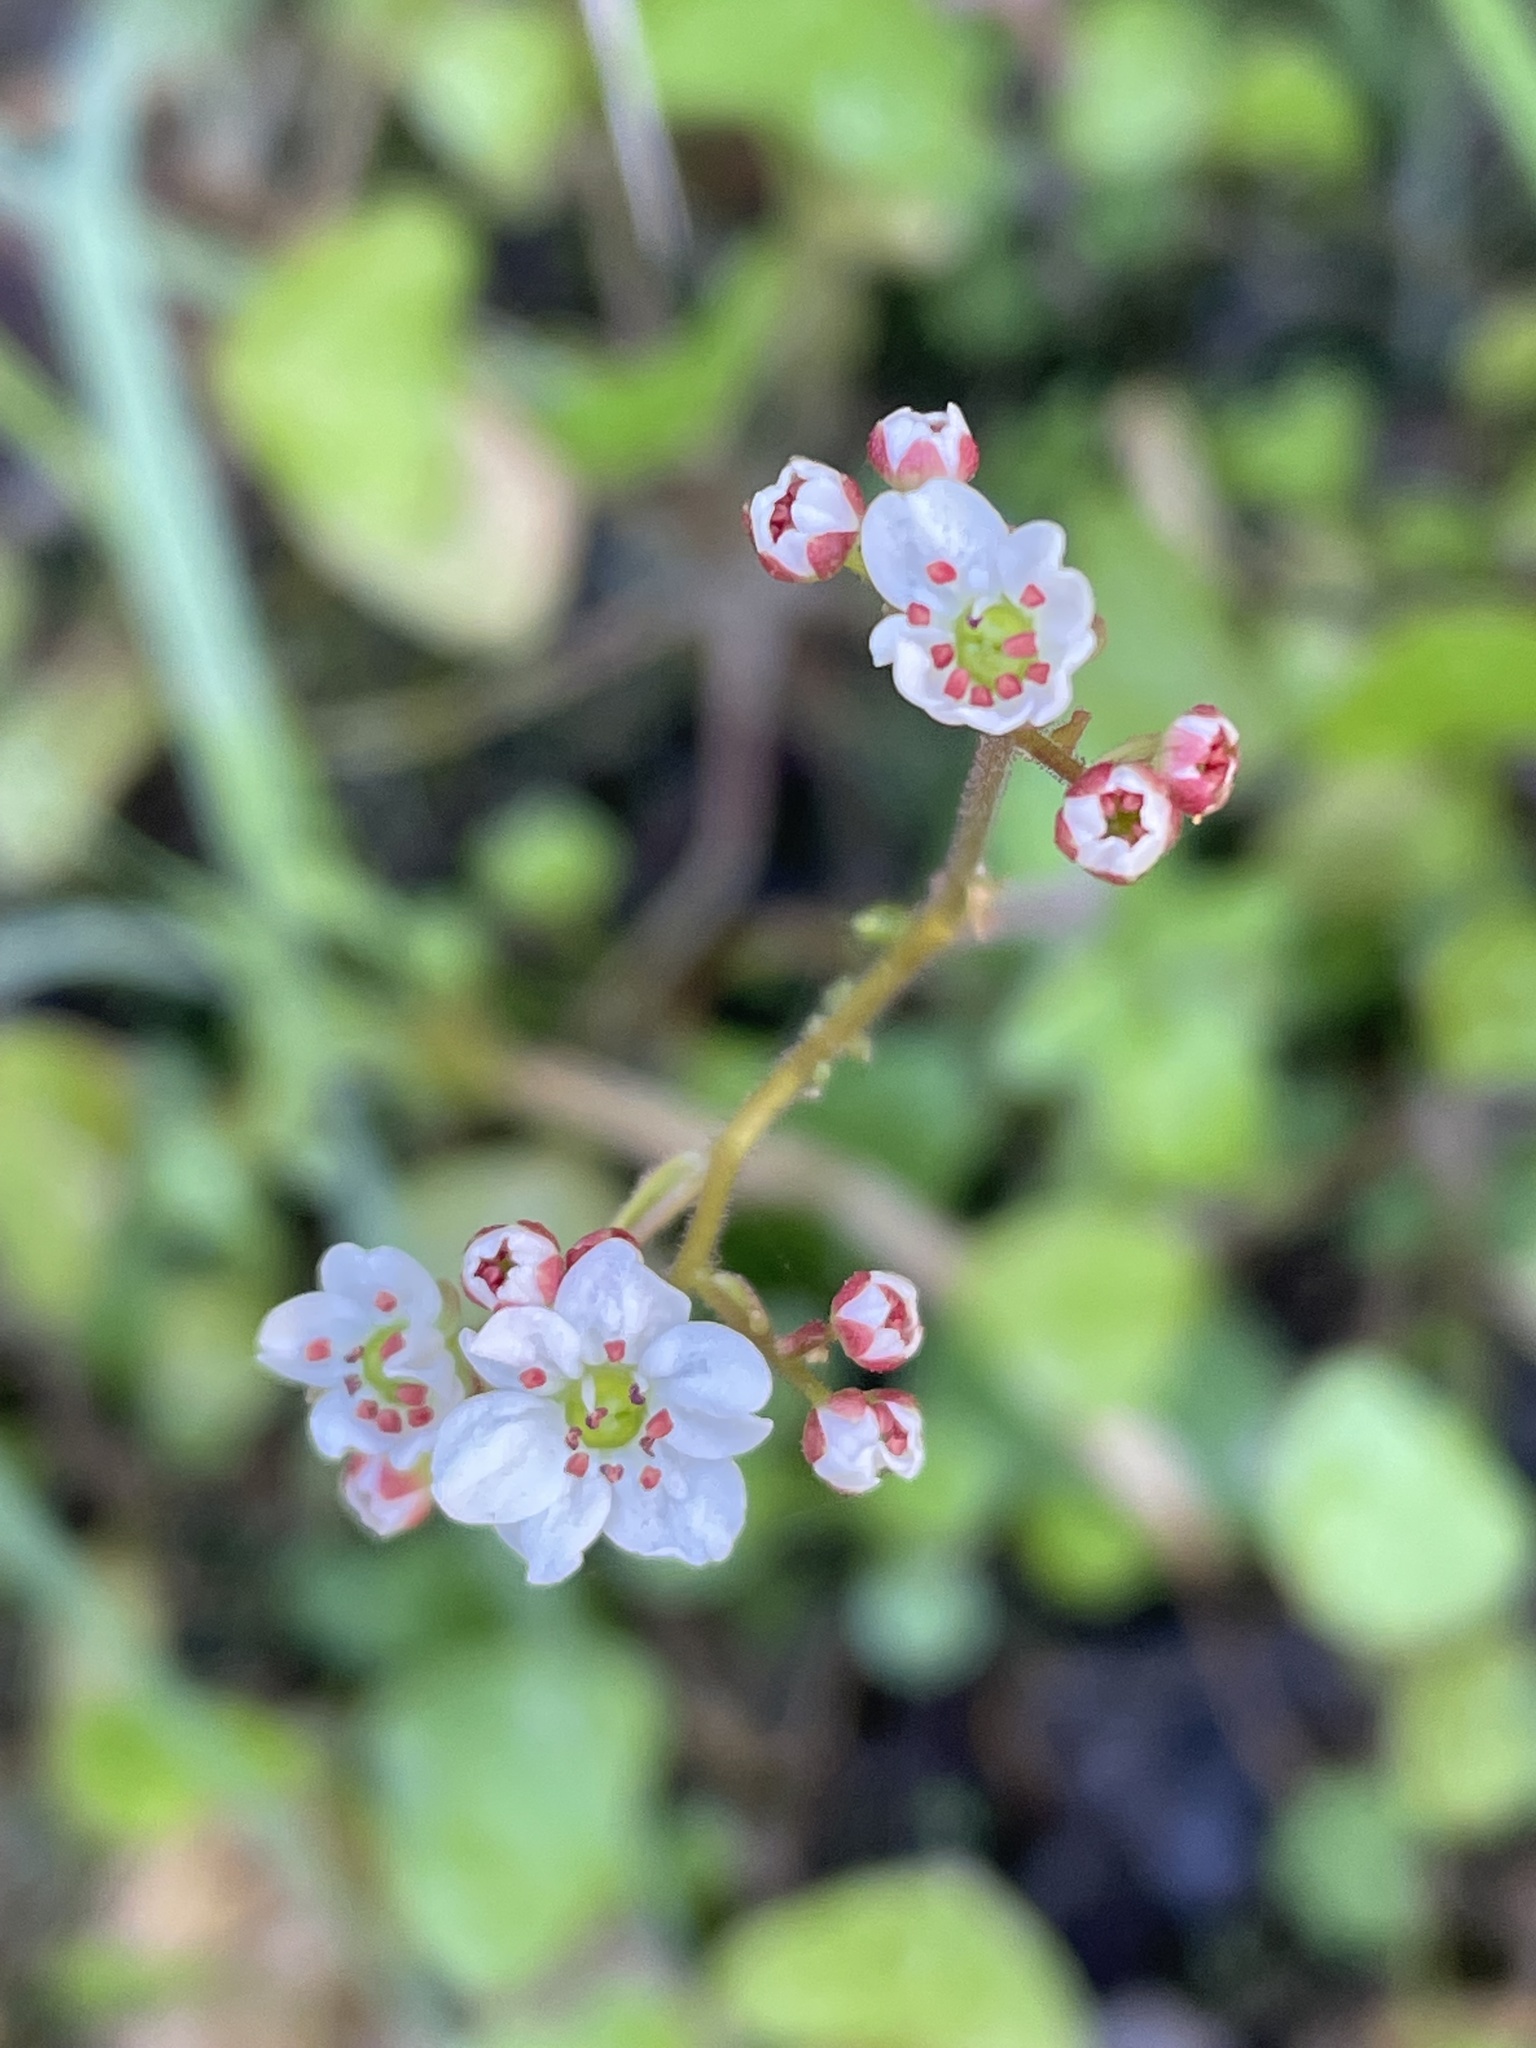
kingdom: Plantae
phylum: Tracheophyta
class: Magnoliopsida
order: Saxifragales
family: Saxifragaceae
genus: Micranthes
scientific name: Micranthes californica
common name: California saxifrage
